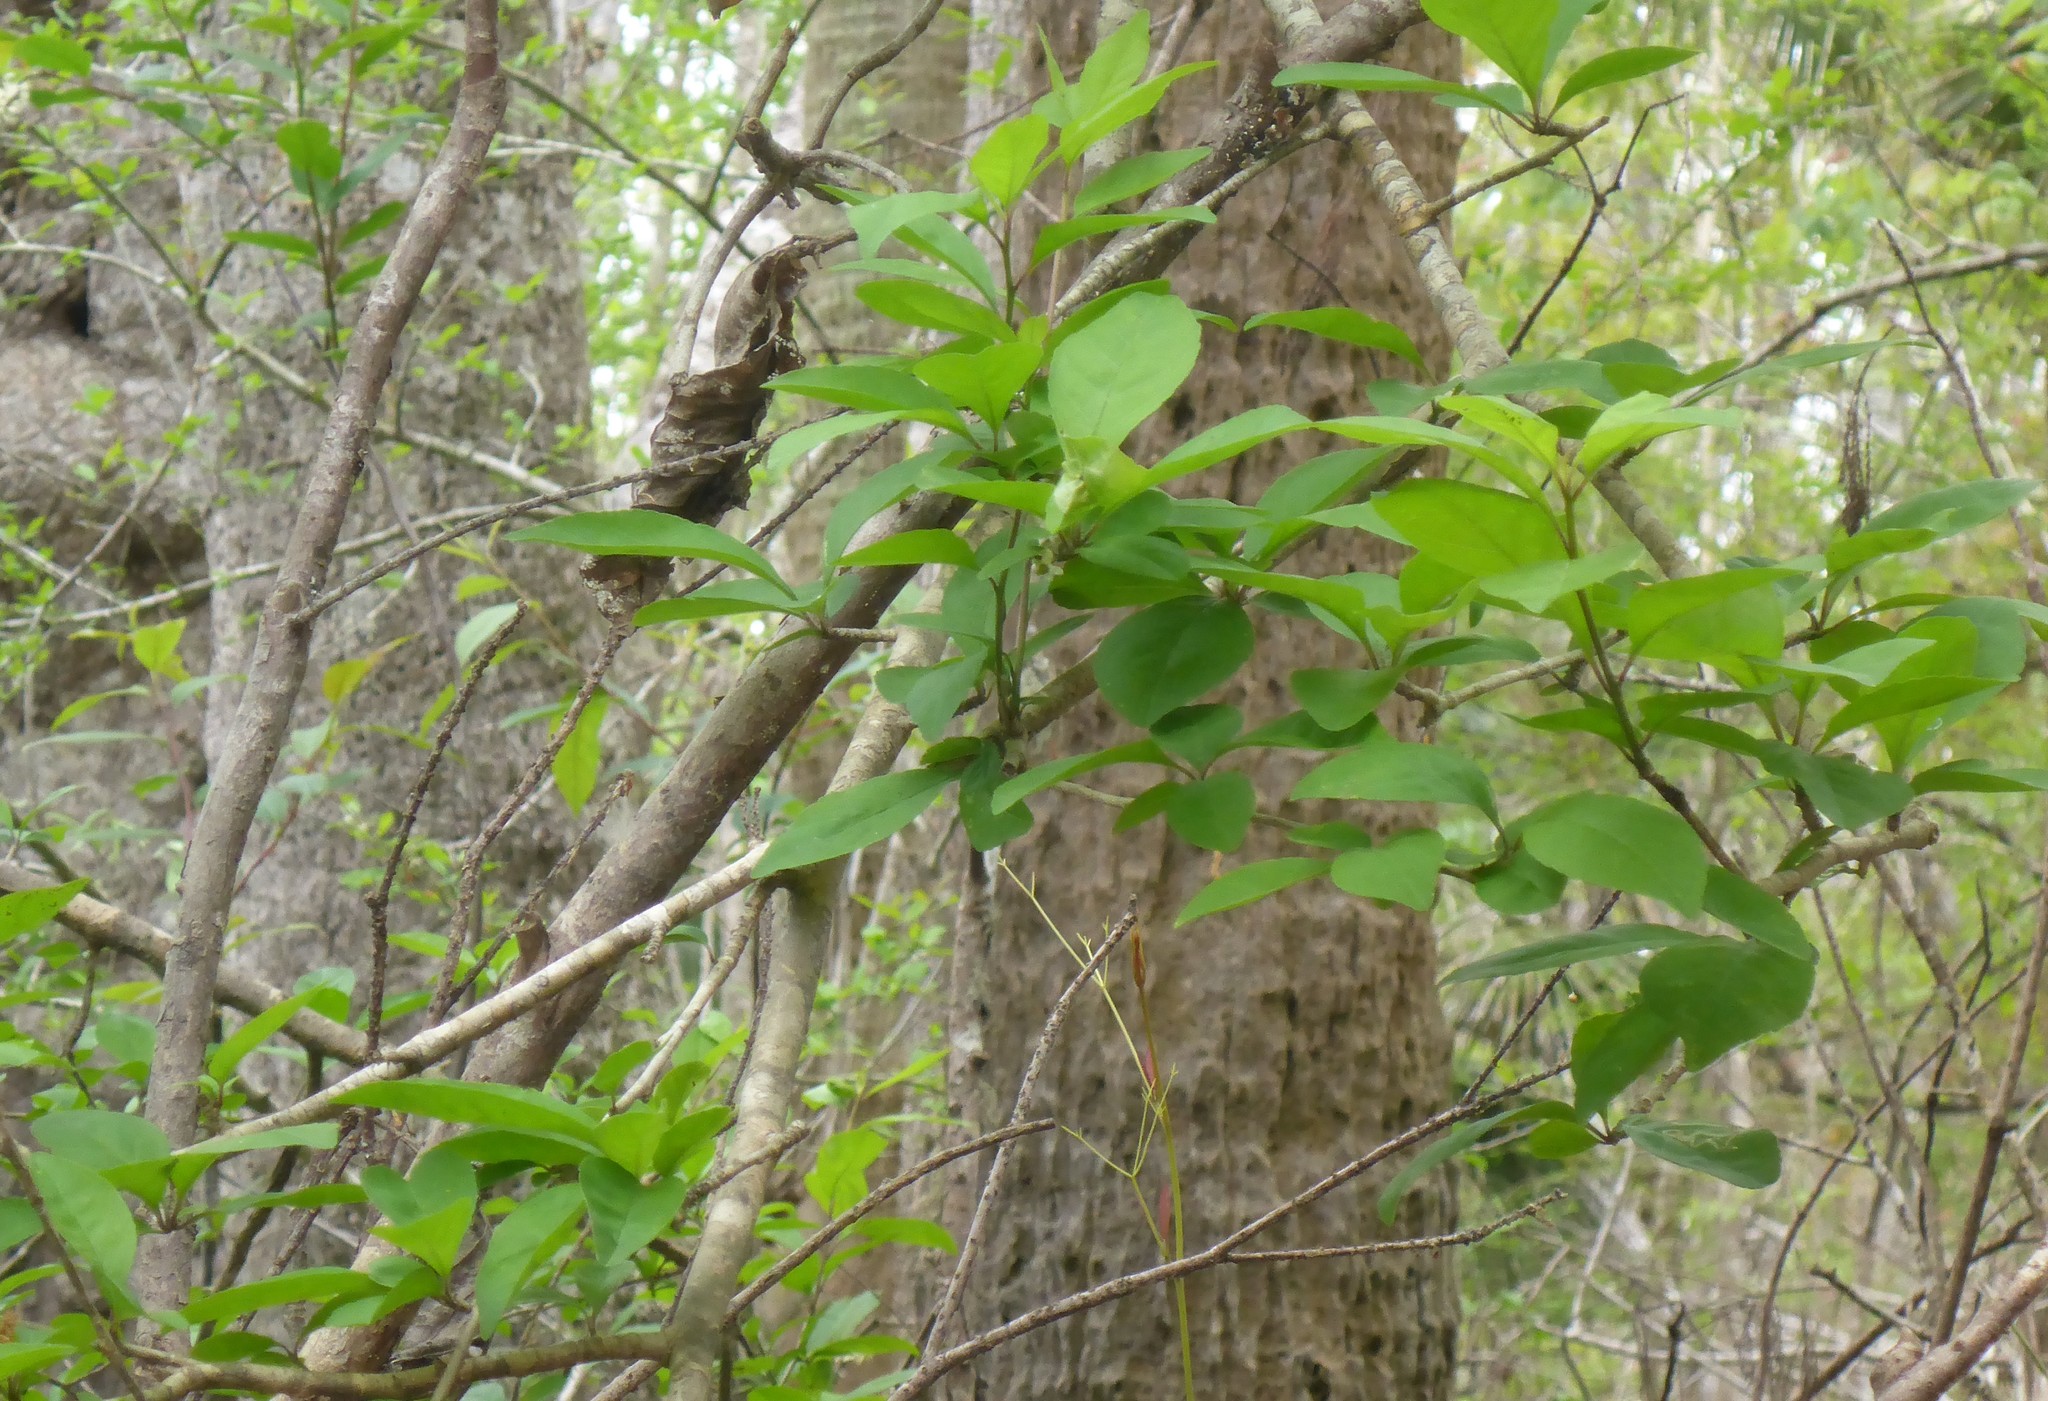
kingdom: Plantae
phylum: Tracheophyta
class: Magnoliopsida
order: Aquifoliales
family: Aquifoliaceae
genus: Ilex
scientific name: Ilex longipes
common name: Georgia holly
